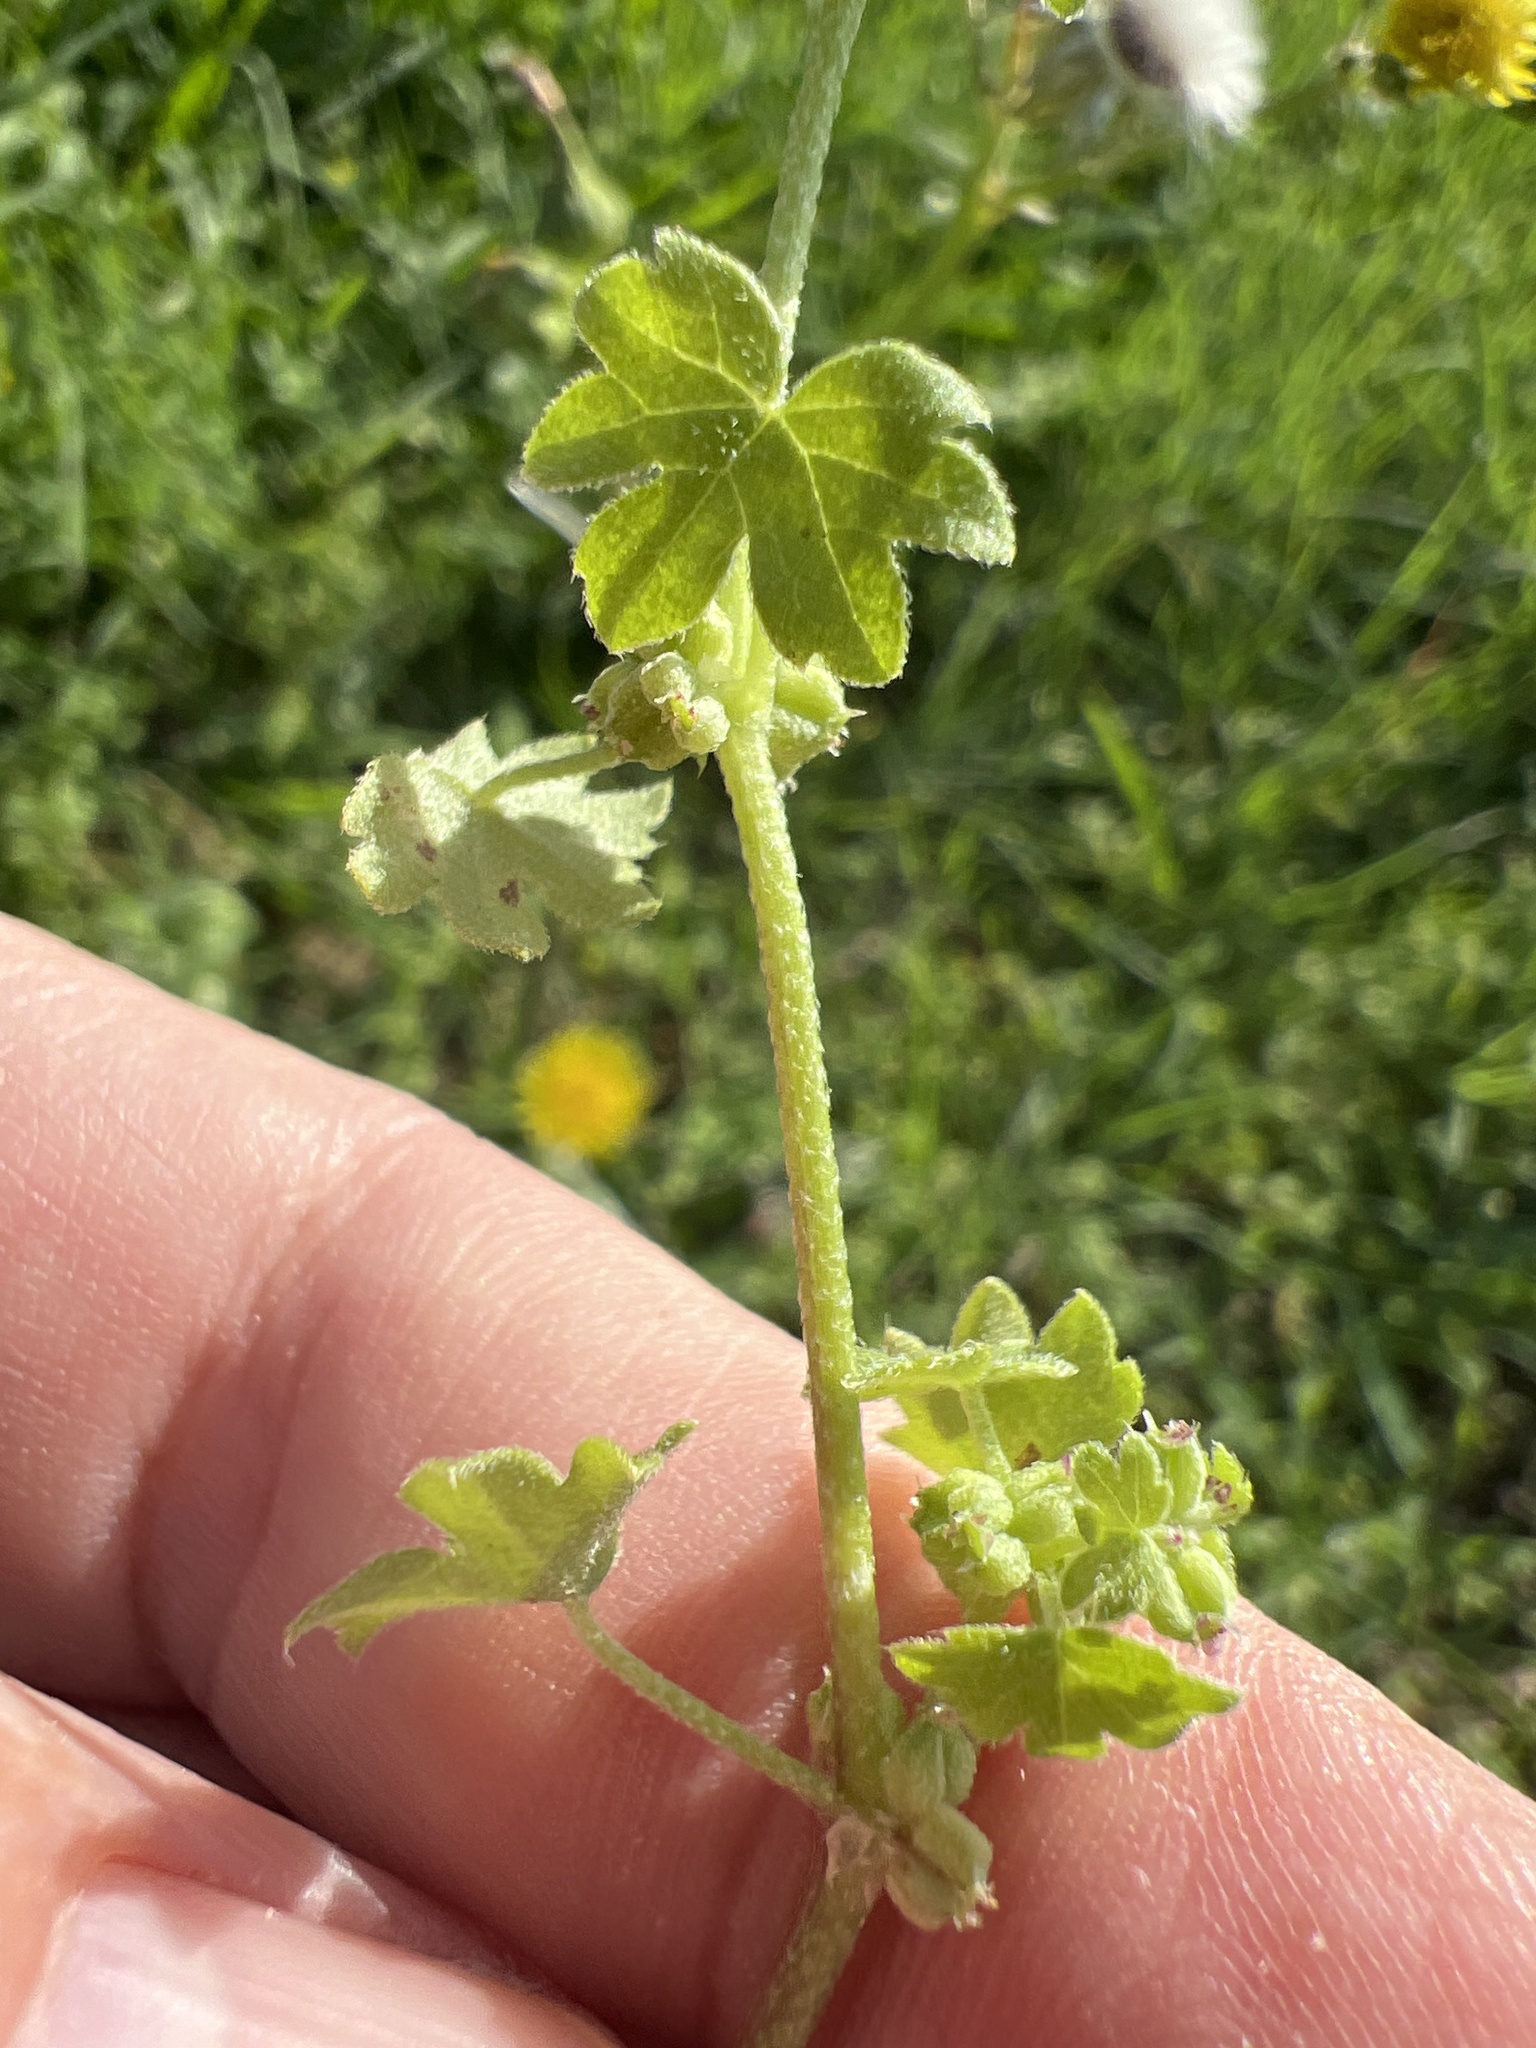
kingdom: Plantae
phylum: Tracheophyta
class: Magnoliopsida
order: Apiales
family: Apiaceae
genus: Bowlesia
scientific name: Bowlesia incana
